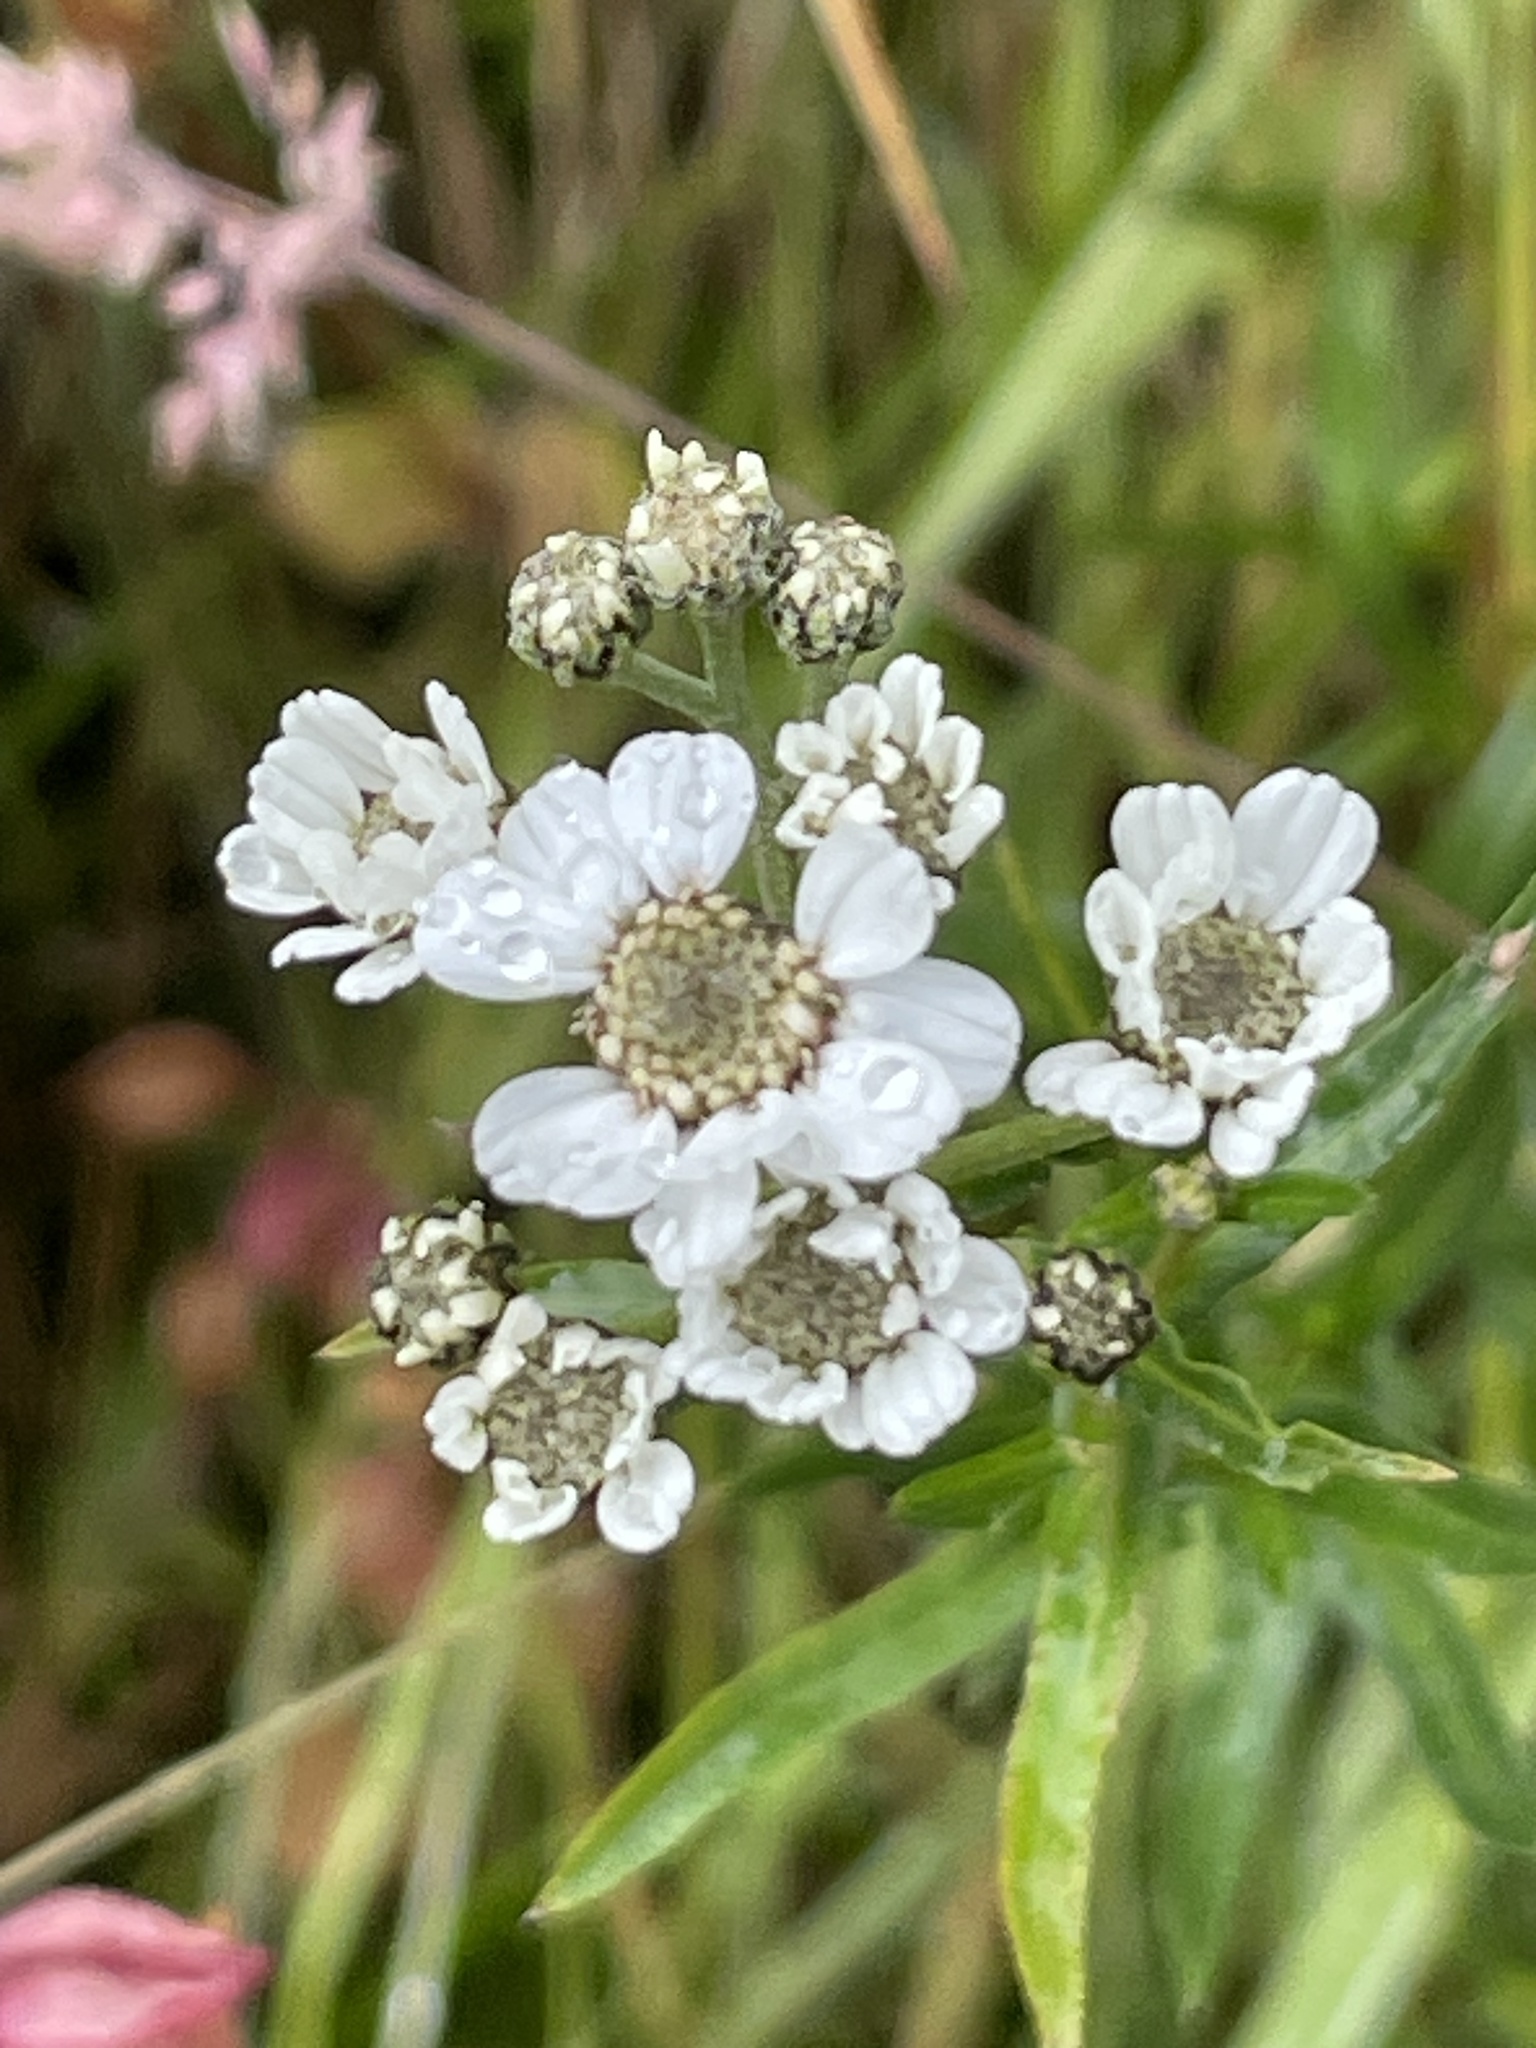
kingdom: Plantae
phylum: Tracheophyta
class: Magnoliopsida
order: Asterales
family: Asteraceae
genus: Achillea
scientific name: Achillea ptarmica
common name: Sneezeweed
